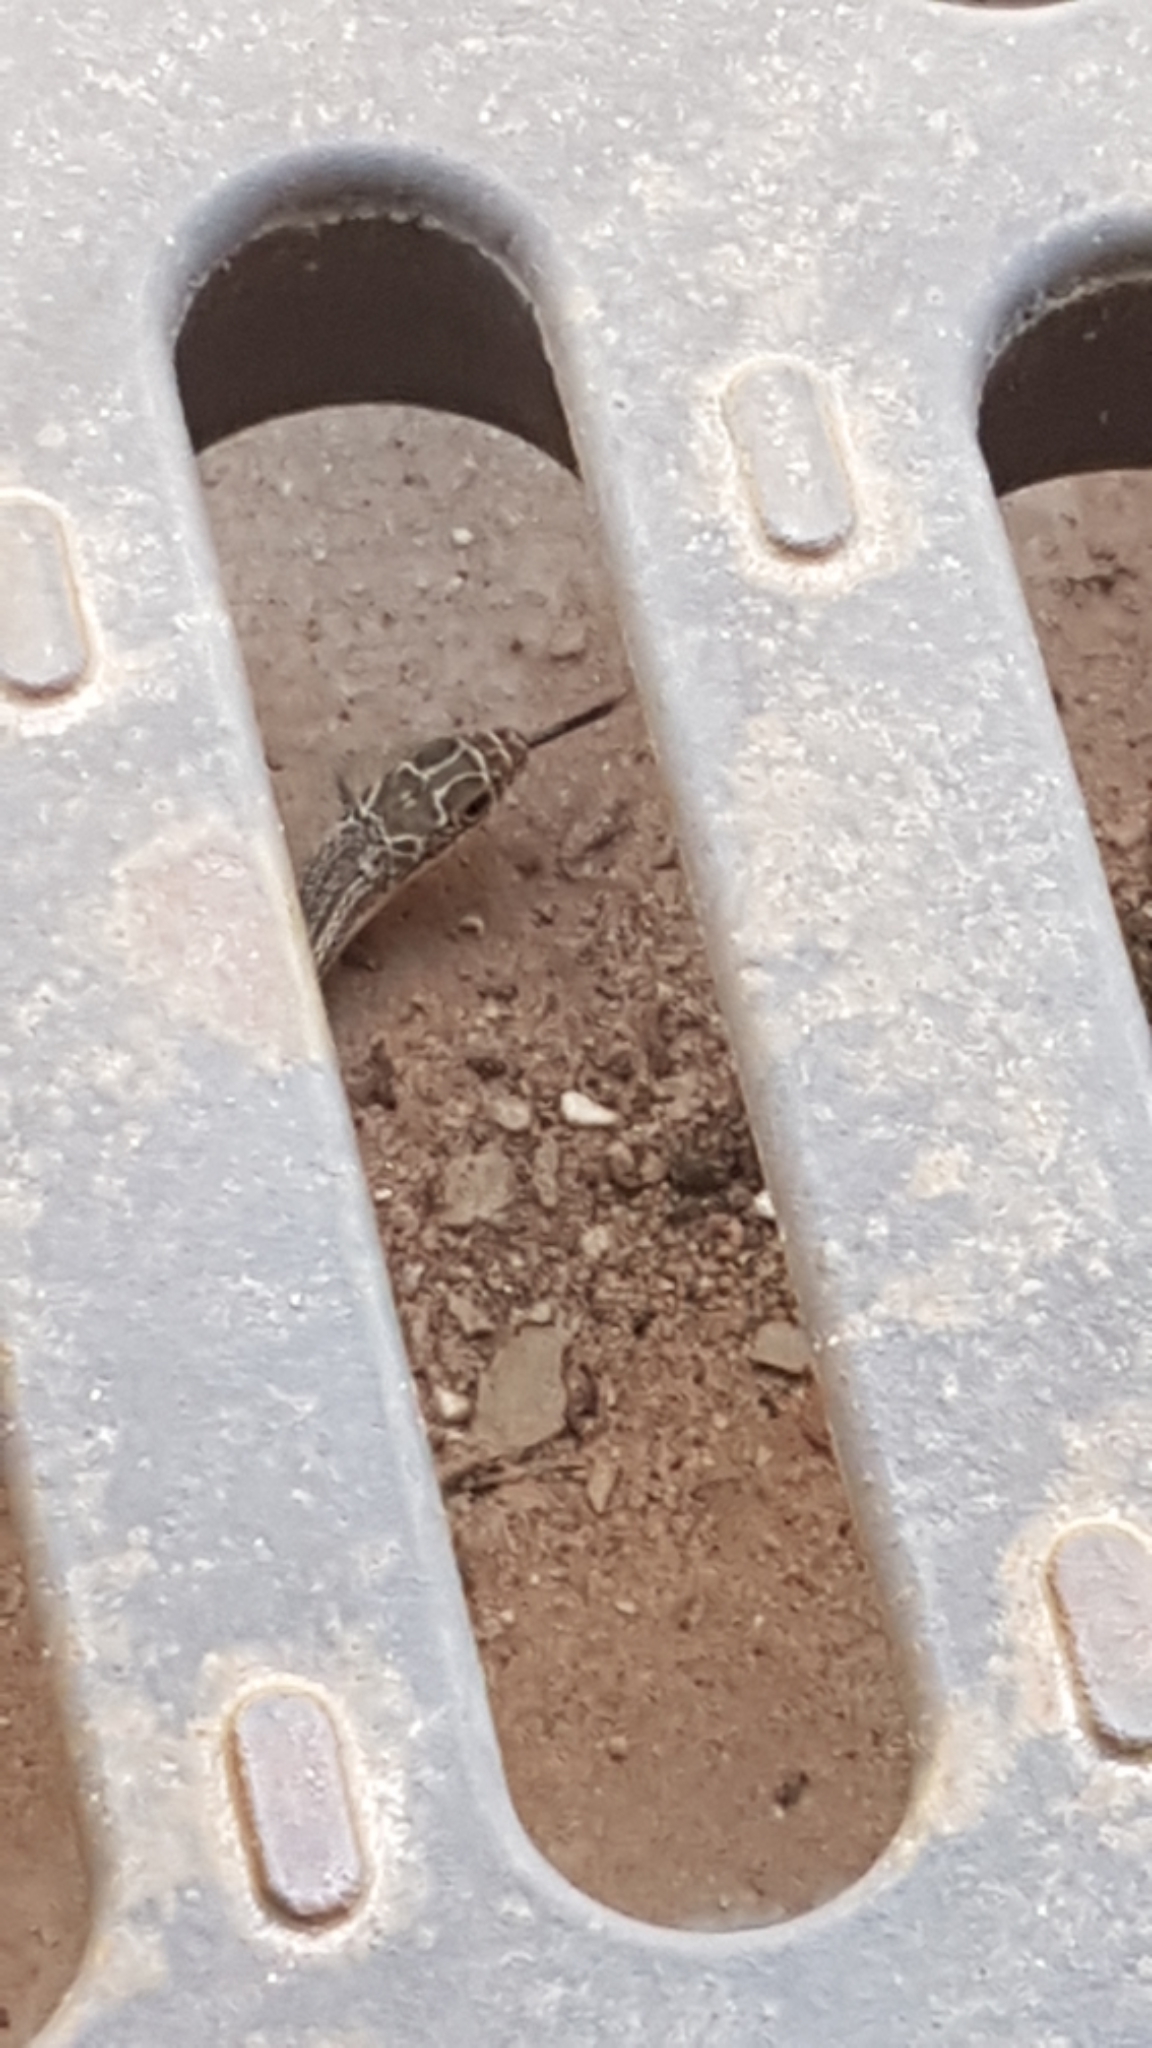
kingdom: Animalia
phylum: Chordata
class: Squamata
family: Colubridae
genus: Masticophis
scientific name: Masticophis taeniatus
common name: Striped whipsnake
